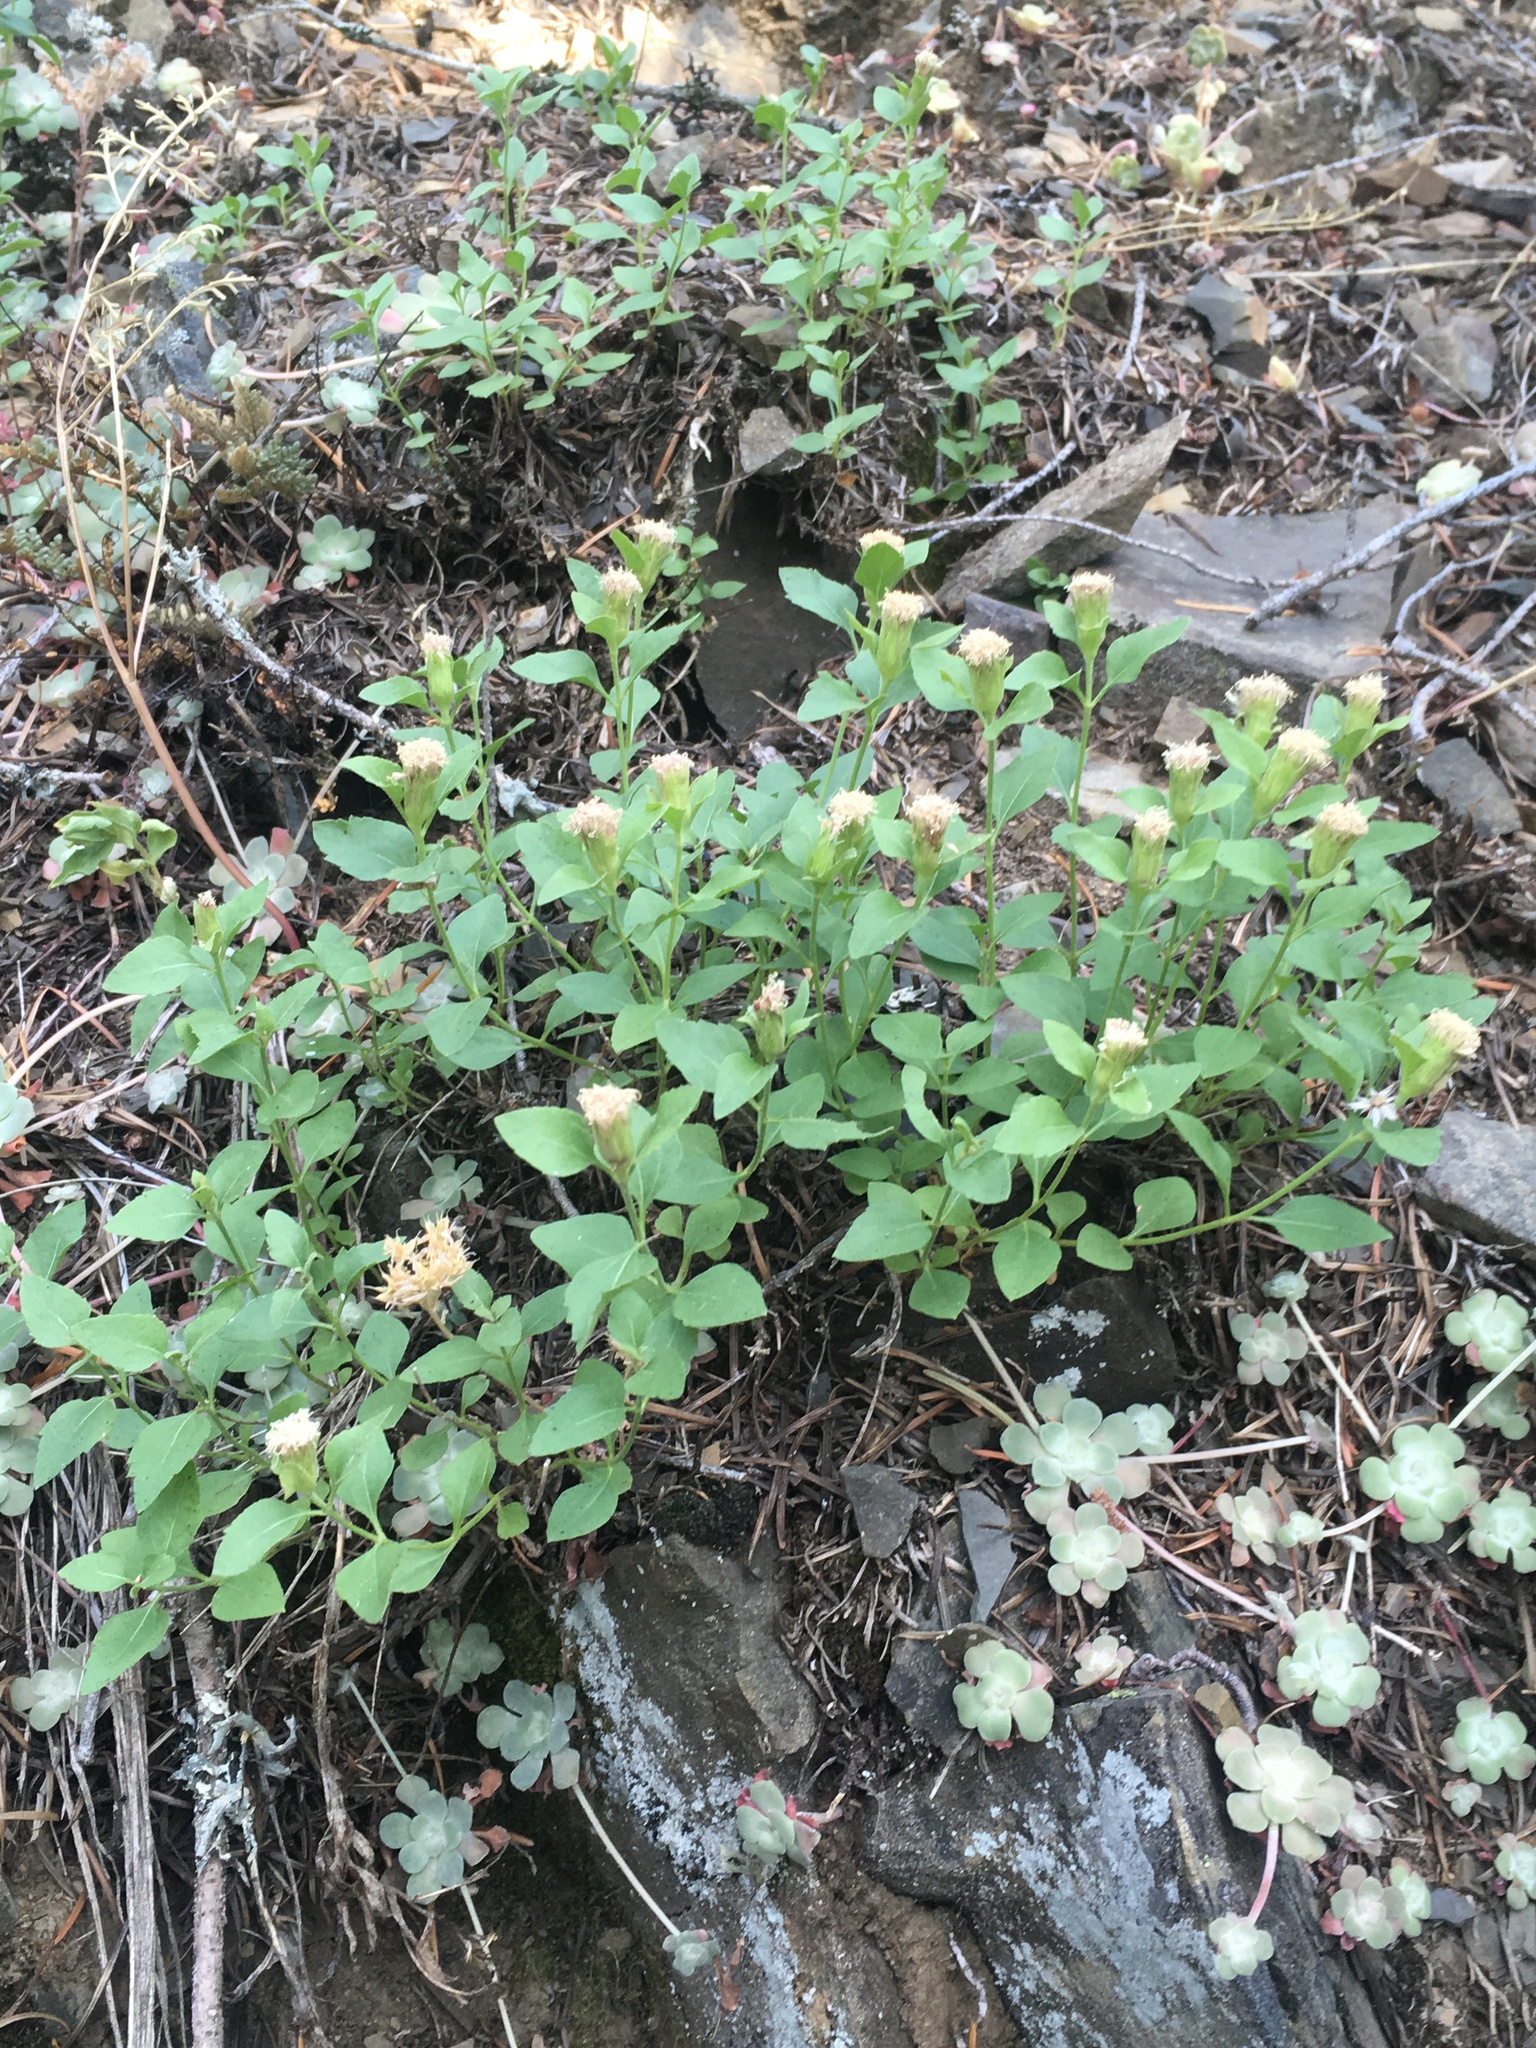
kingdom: Plantae
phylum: Tracheophyta
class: Magnoliopsida
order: Asterales
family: Asteraceae
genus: Ageratina
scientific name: Ageratina shastensis
